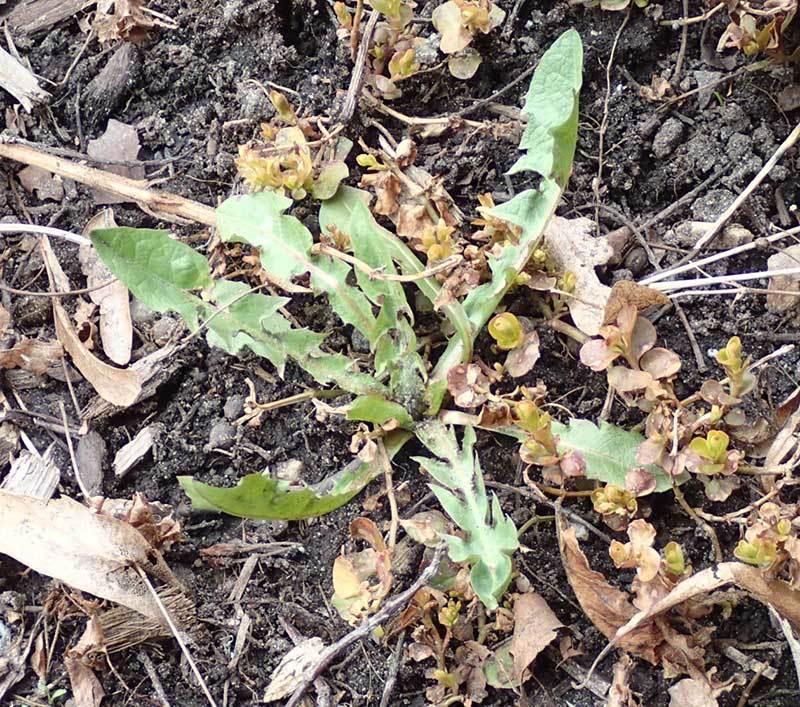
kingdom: Plantae
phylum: Tracheophyta
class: Magnoliopsida
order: Asterales
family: Asteraceae
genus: Taraxacum
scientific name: Taraxacum officinale
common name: Common dandelion
